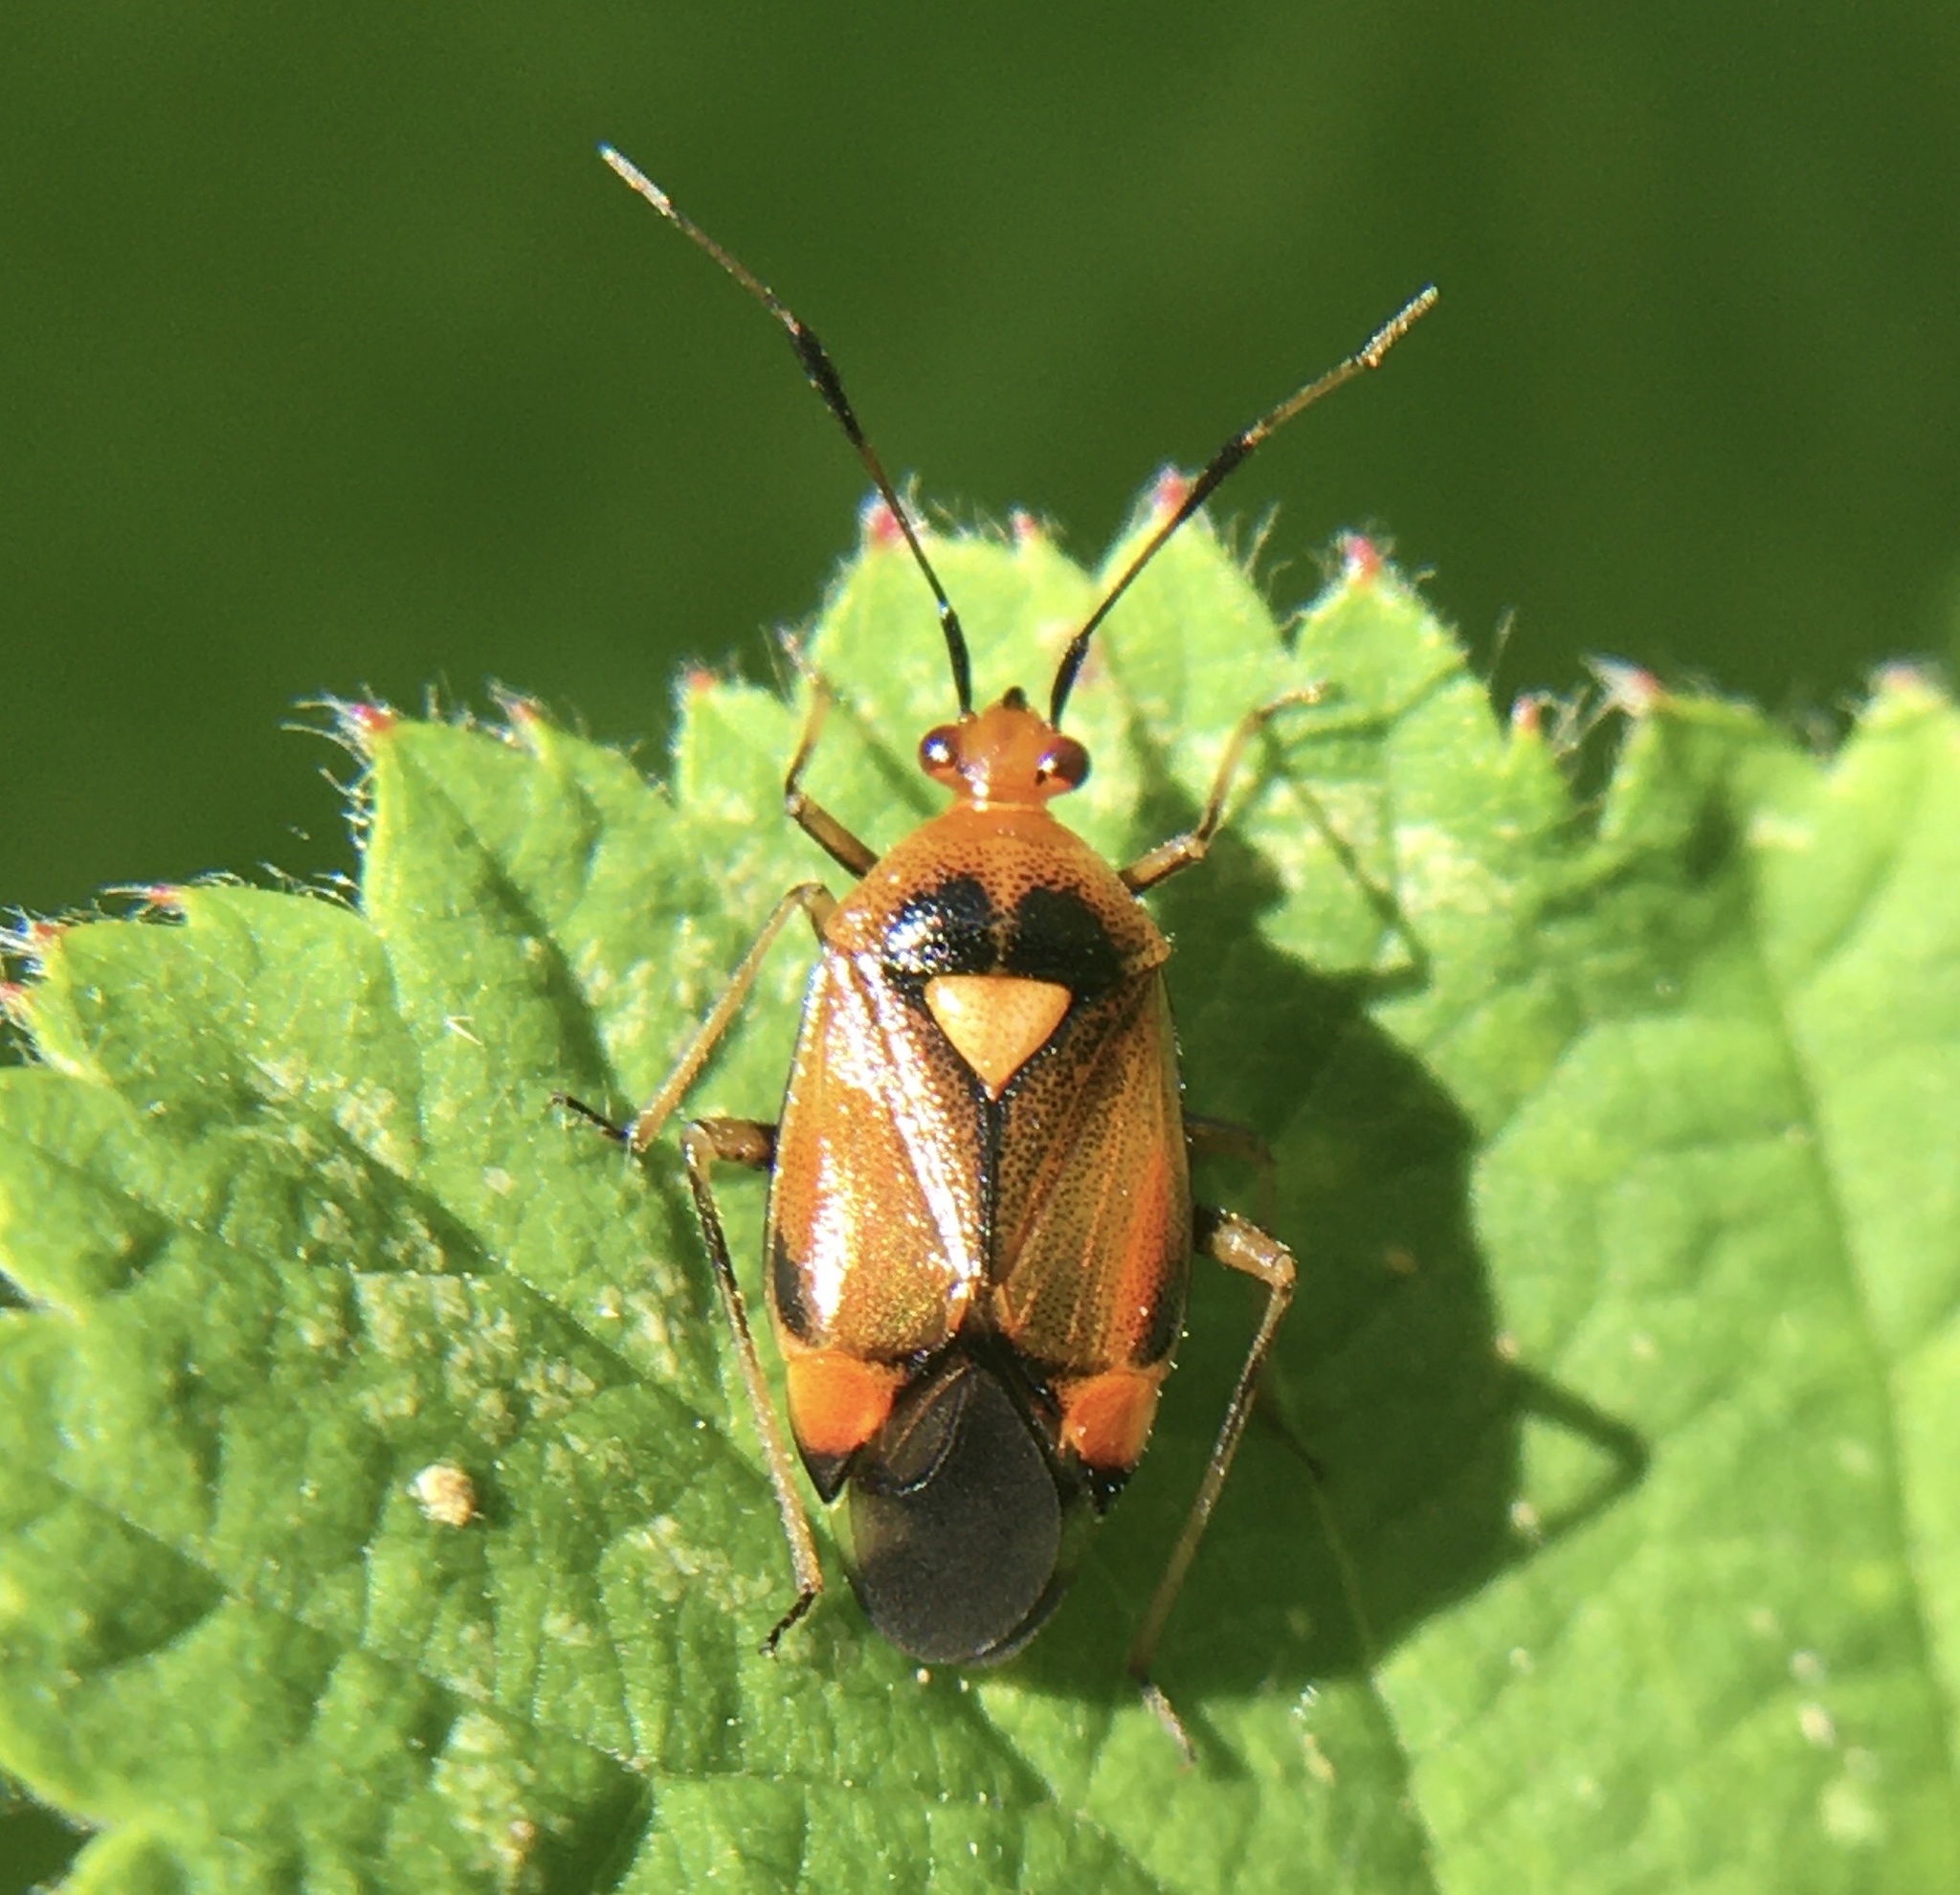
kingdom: Animalia
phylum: Arthropoda
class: Insecta
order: Hemiptera
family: Miridae
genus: Deraeocoris
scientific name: Deraeocoris ruber
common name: Plant bug
